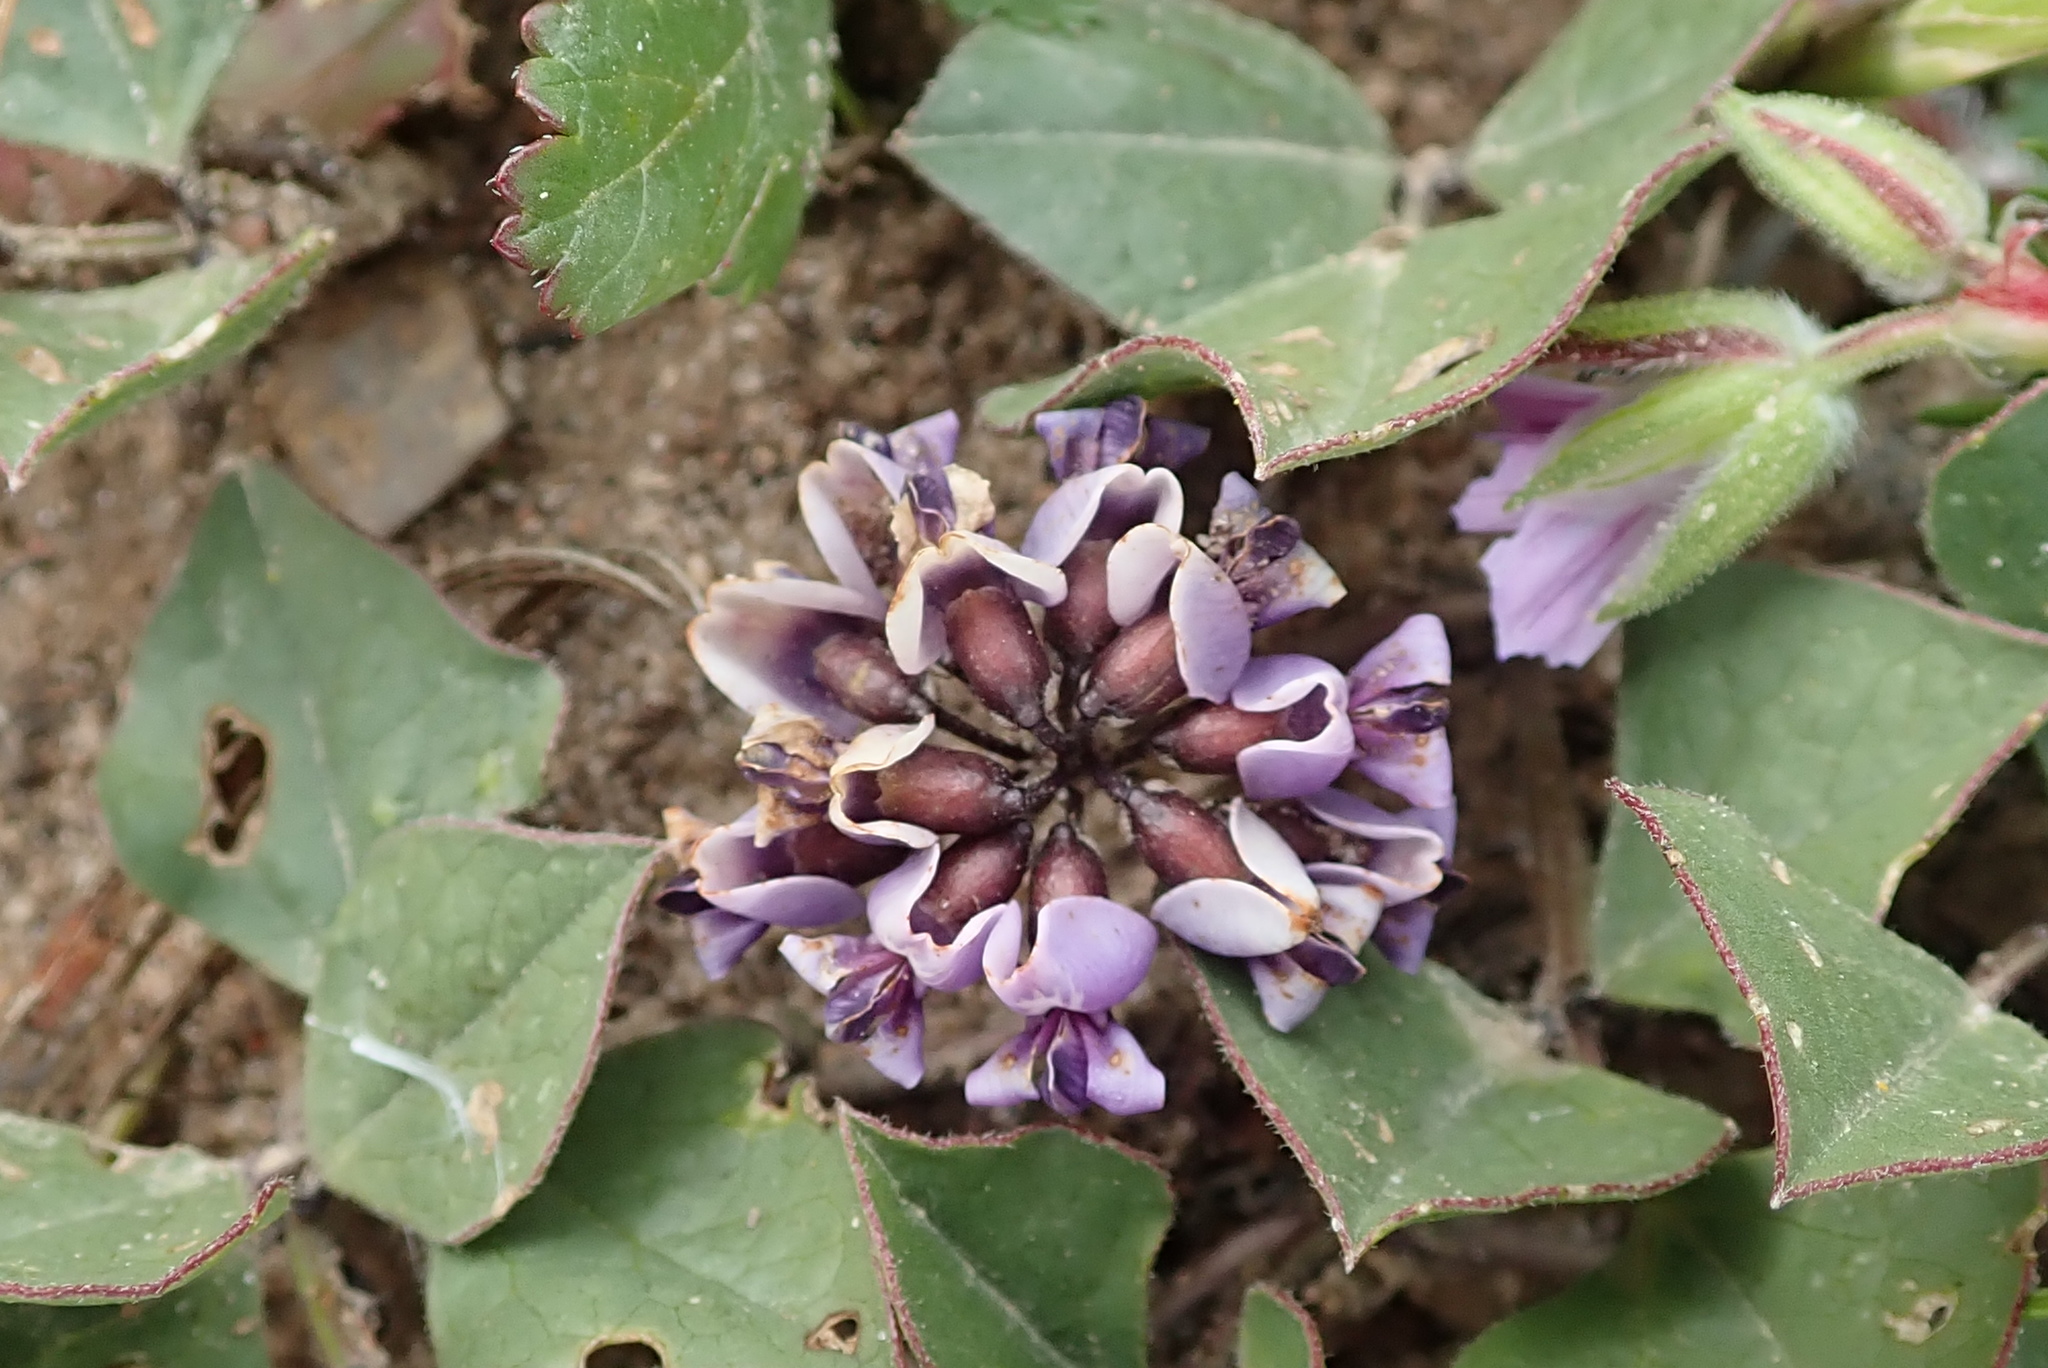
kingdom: Plantae
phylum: Tracheophyta
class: Magnoliopsida
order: Fabales
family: Fabaceae
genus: Dolichos
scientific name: Dolichos decumbens
